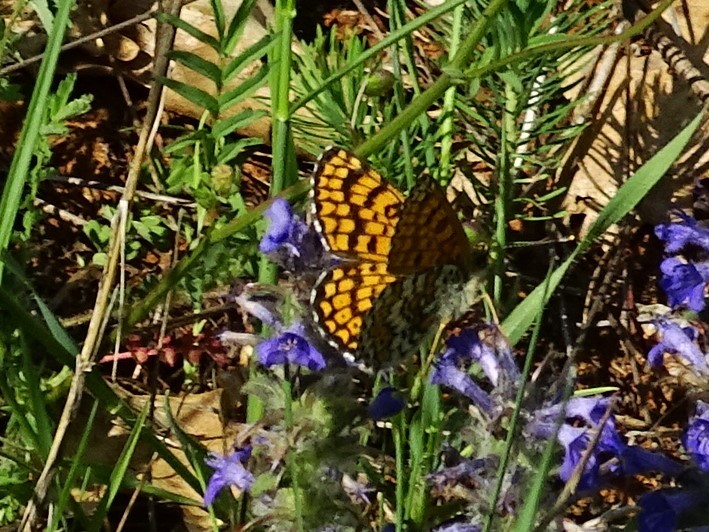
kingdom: Animalia
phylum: Arthropoda
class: Insecta
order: Lepidoptera
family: Nymphalidae
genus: Melitaea
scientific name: Melitaea cinxia
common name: Glanville fritillary
